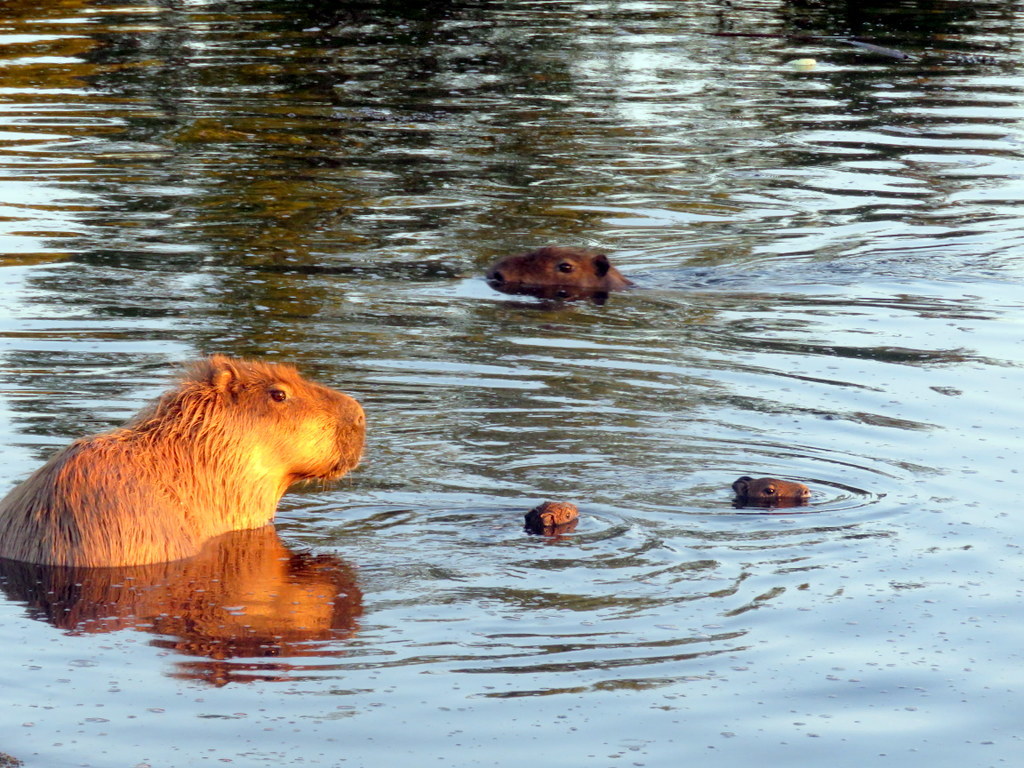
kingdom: Animalia
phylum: Chordata
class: Mammalia
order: Rodentia
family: Caviidae
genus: Hydrochoerus
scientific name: Hydrochoerus hydrochaeris
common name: Capybara
